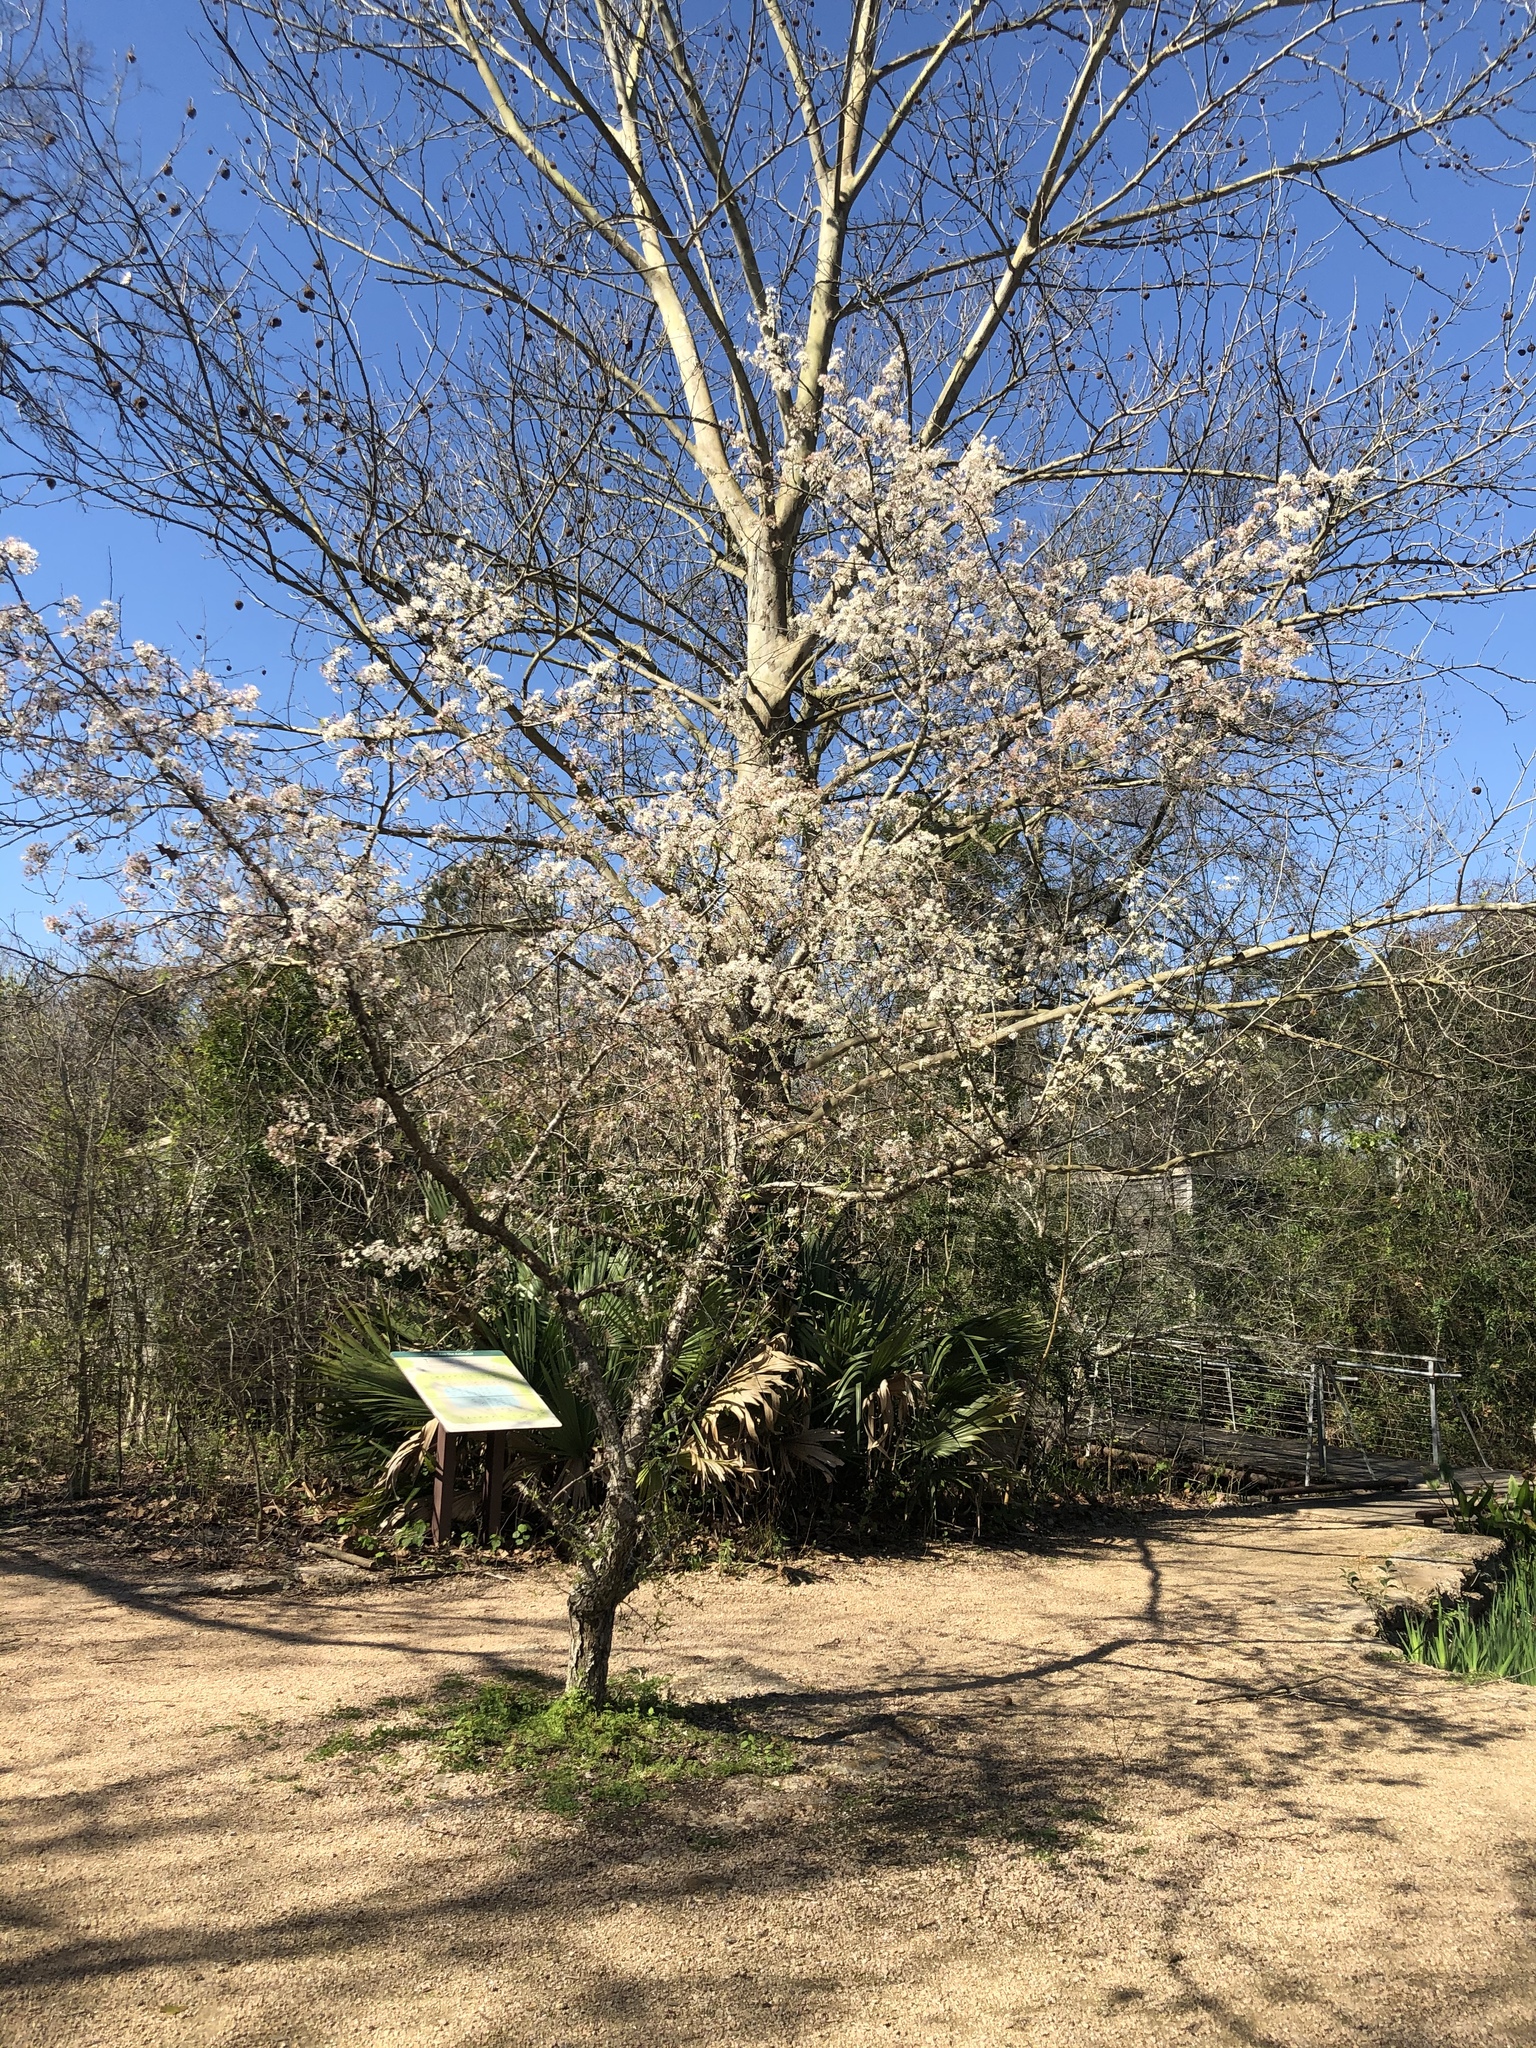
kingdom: Plantae
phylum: Tracheophyta
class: Magnoliopsida
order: Rosales
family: Rosaceae
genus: Prunus
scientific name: Prunus mexicana
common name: Mexican plum
